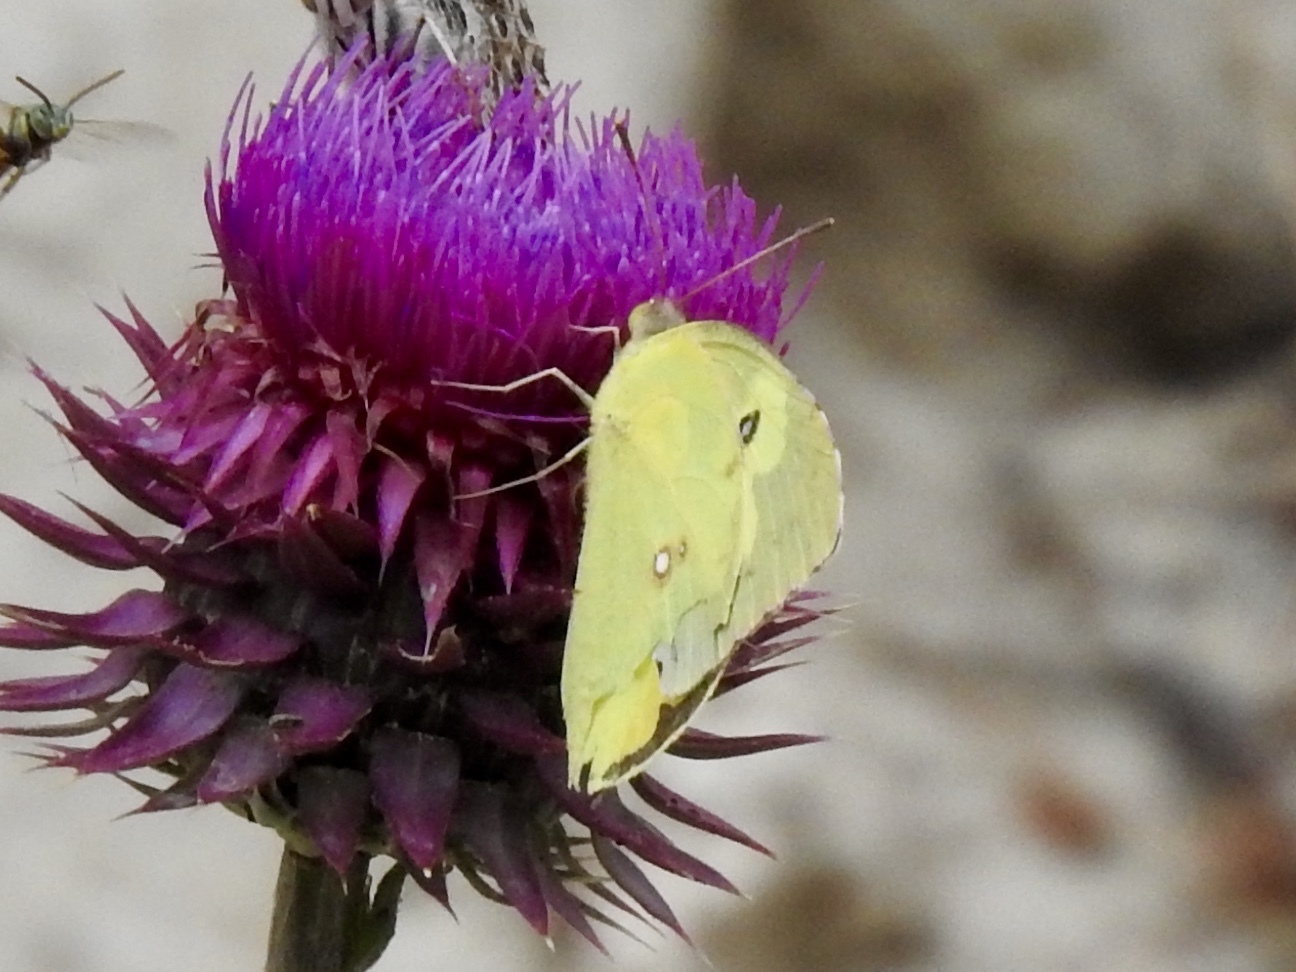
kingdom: Animalia
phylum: Arthropoda
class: Insecta
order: Lepidoptera
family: Pieridae
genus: Colias
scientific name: Colias eurytheme
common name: Alfalfa butterfly
